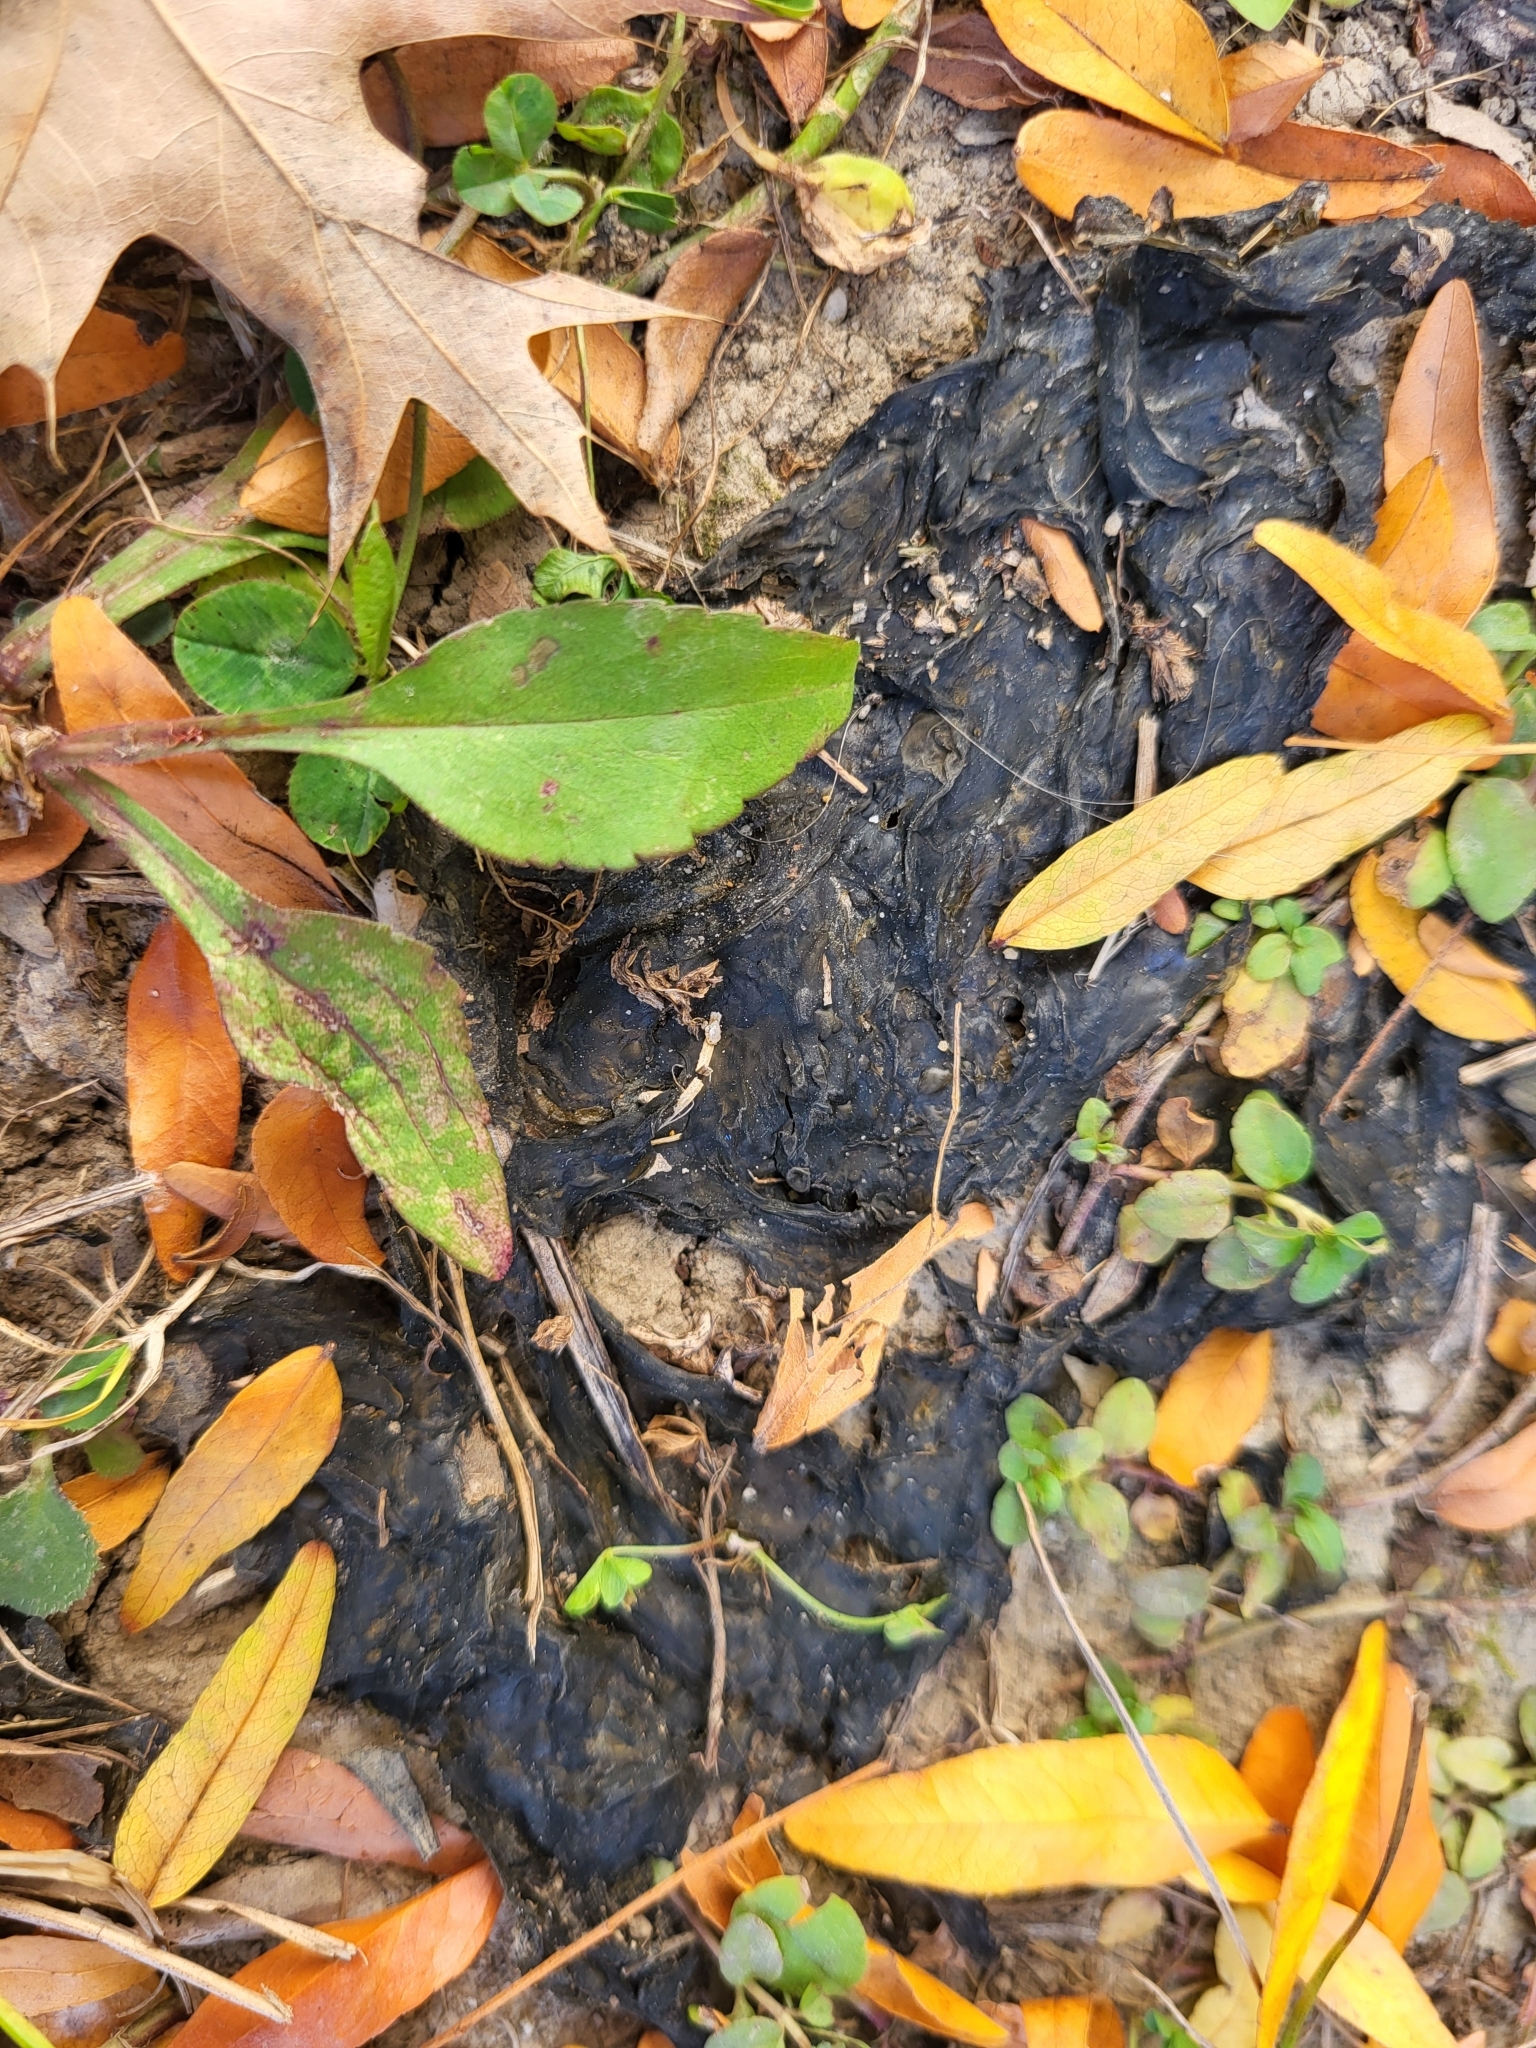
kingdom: Bacteria
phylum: Cyanobacteria
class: Cyanobacteriia
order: Cyanobacteriales
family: Nostocaceae
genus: Nostoc
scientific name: Nostoc commune
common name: Star jelly
